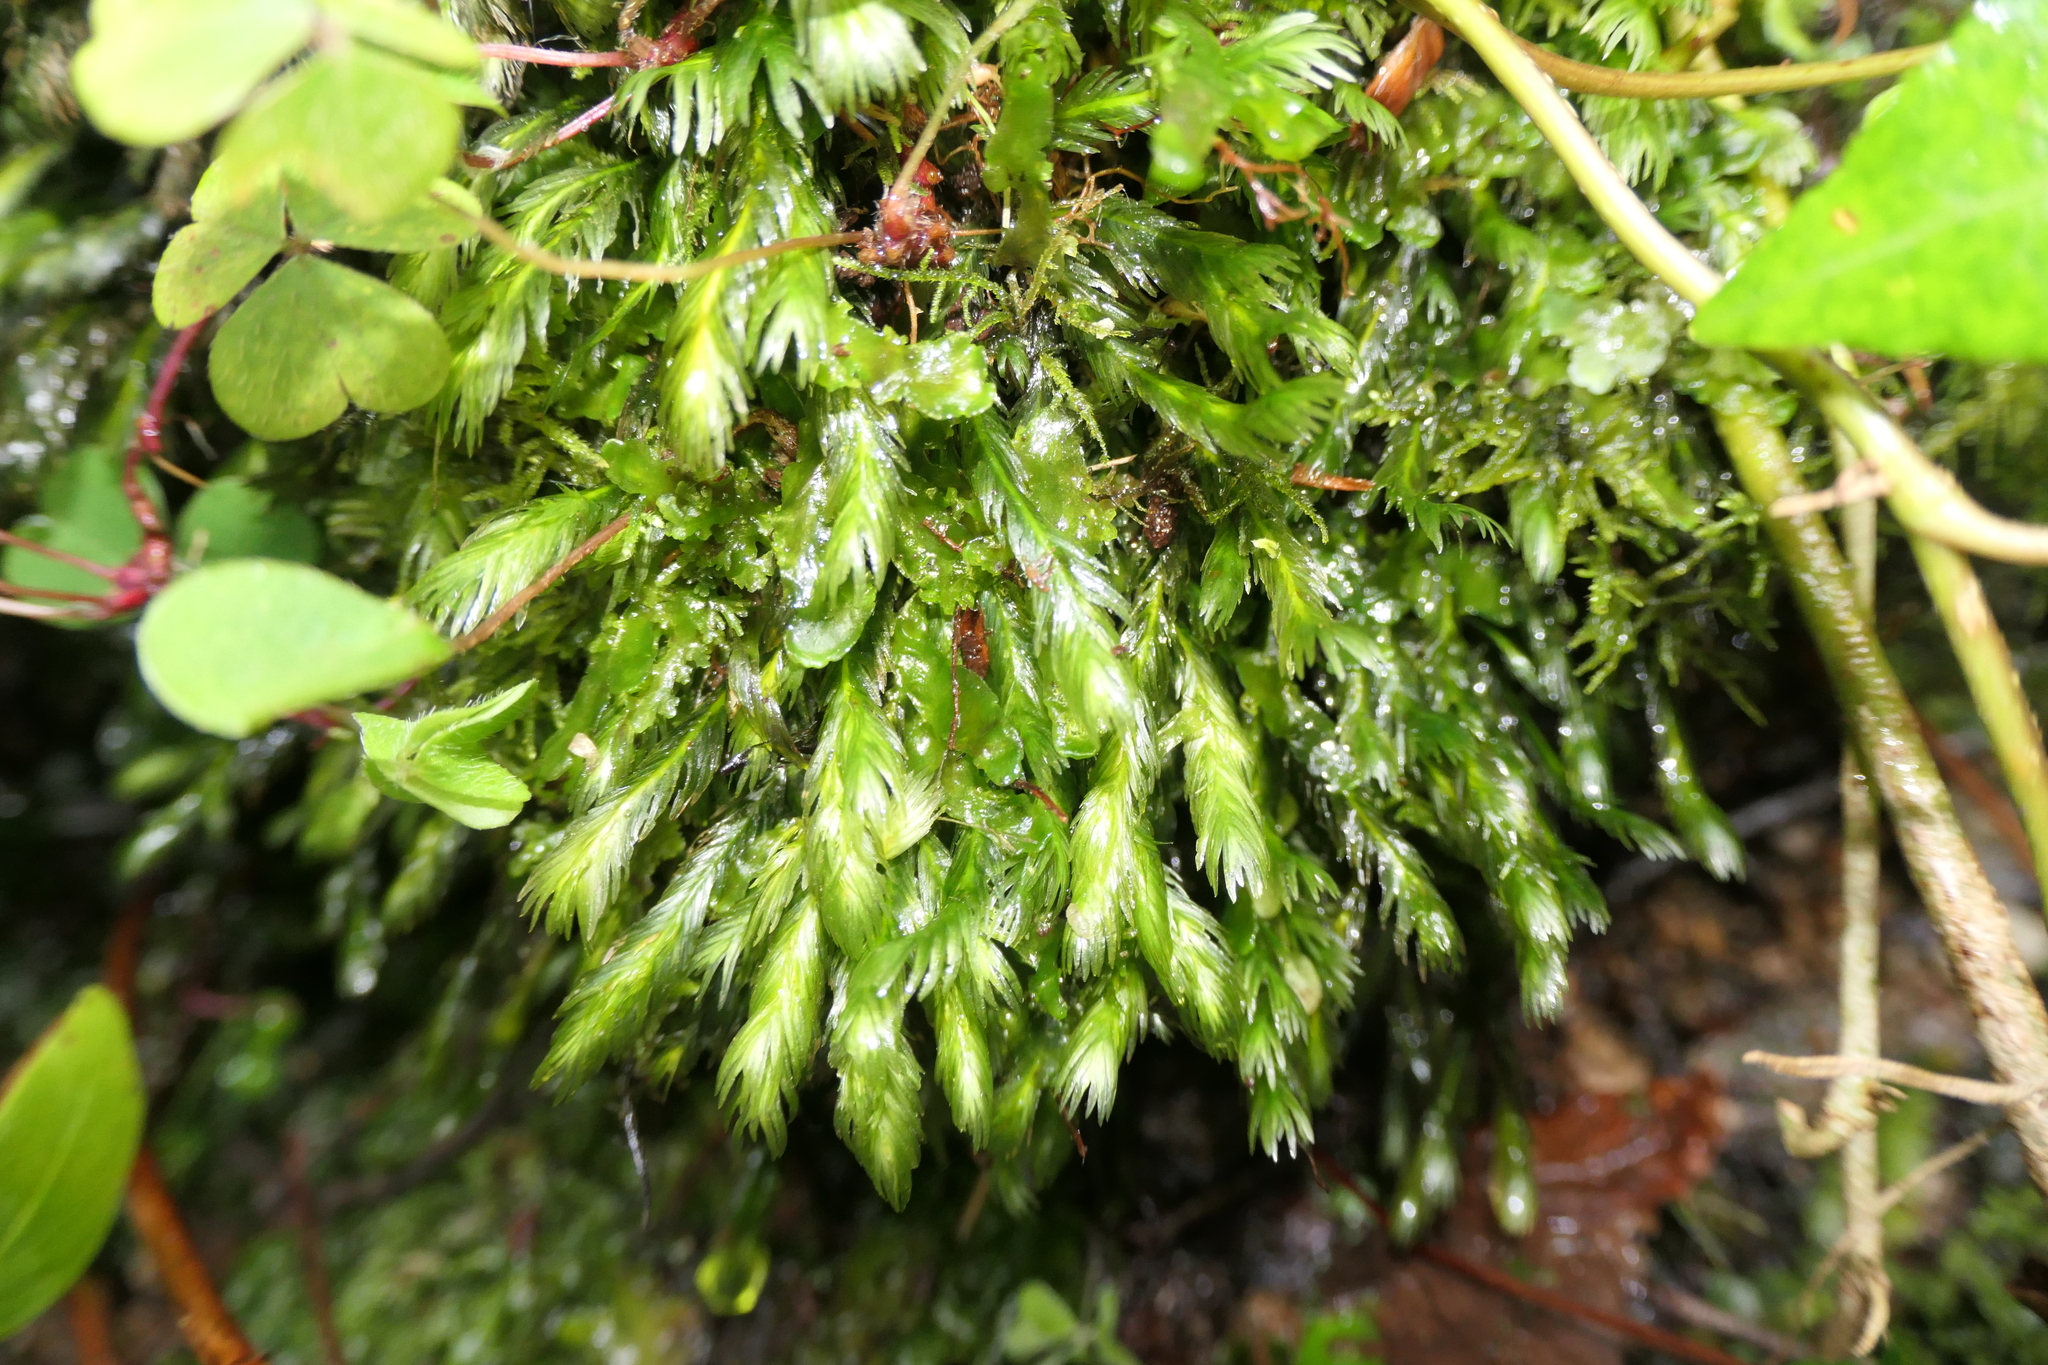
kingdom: Plantae
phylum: Bryophyta
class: Bryopsida
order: Dicranales
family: Fissidentaceae
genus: Fissidens
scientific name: Fissidens grandifrons
